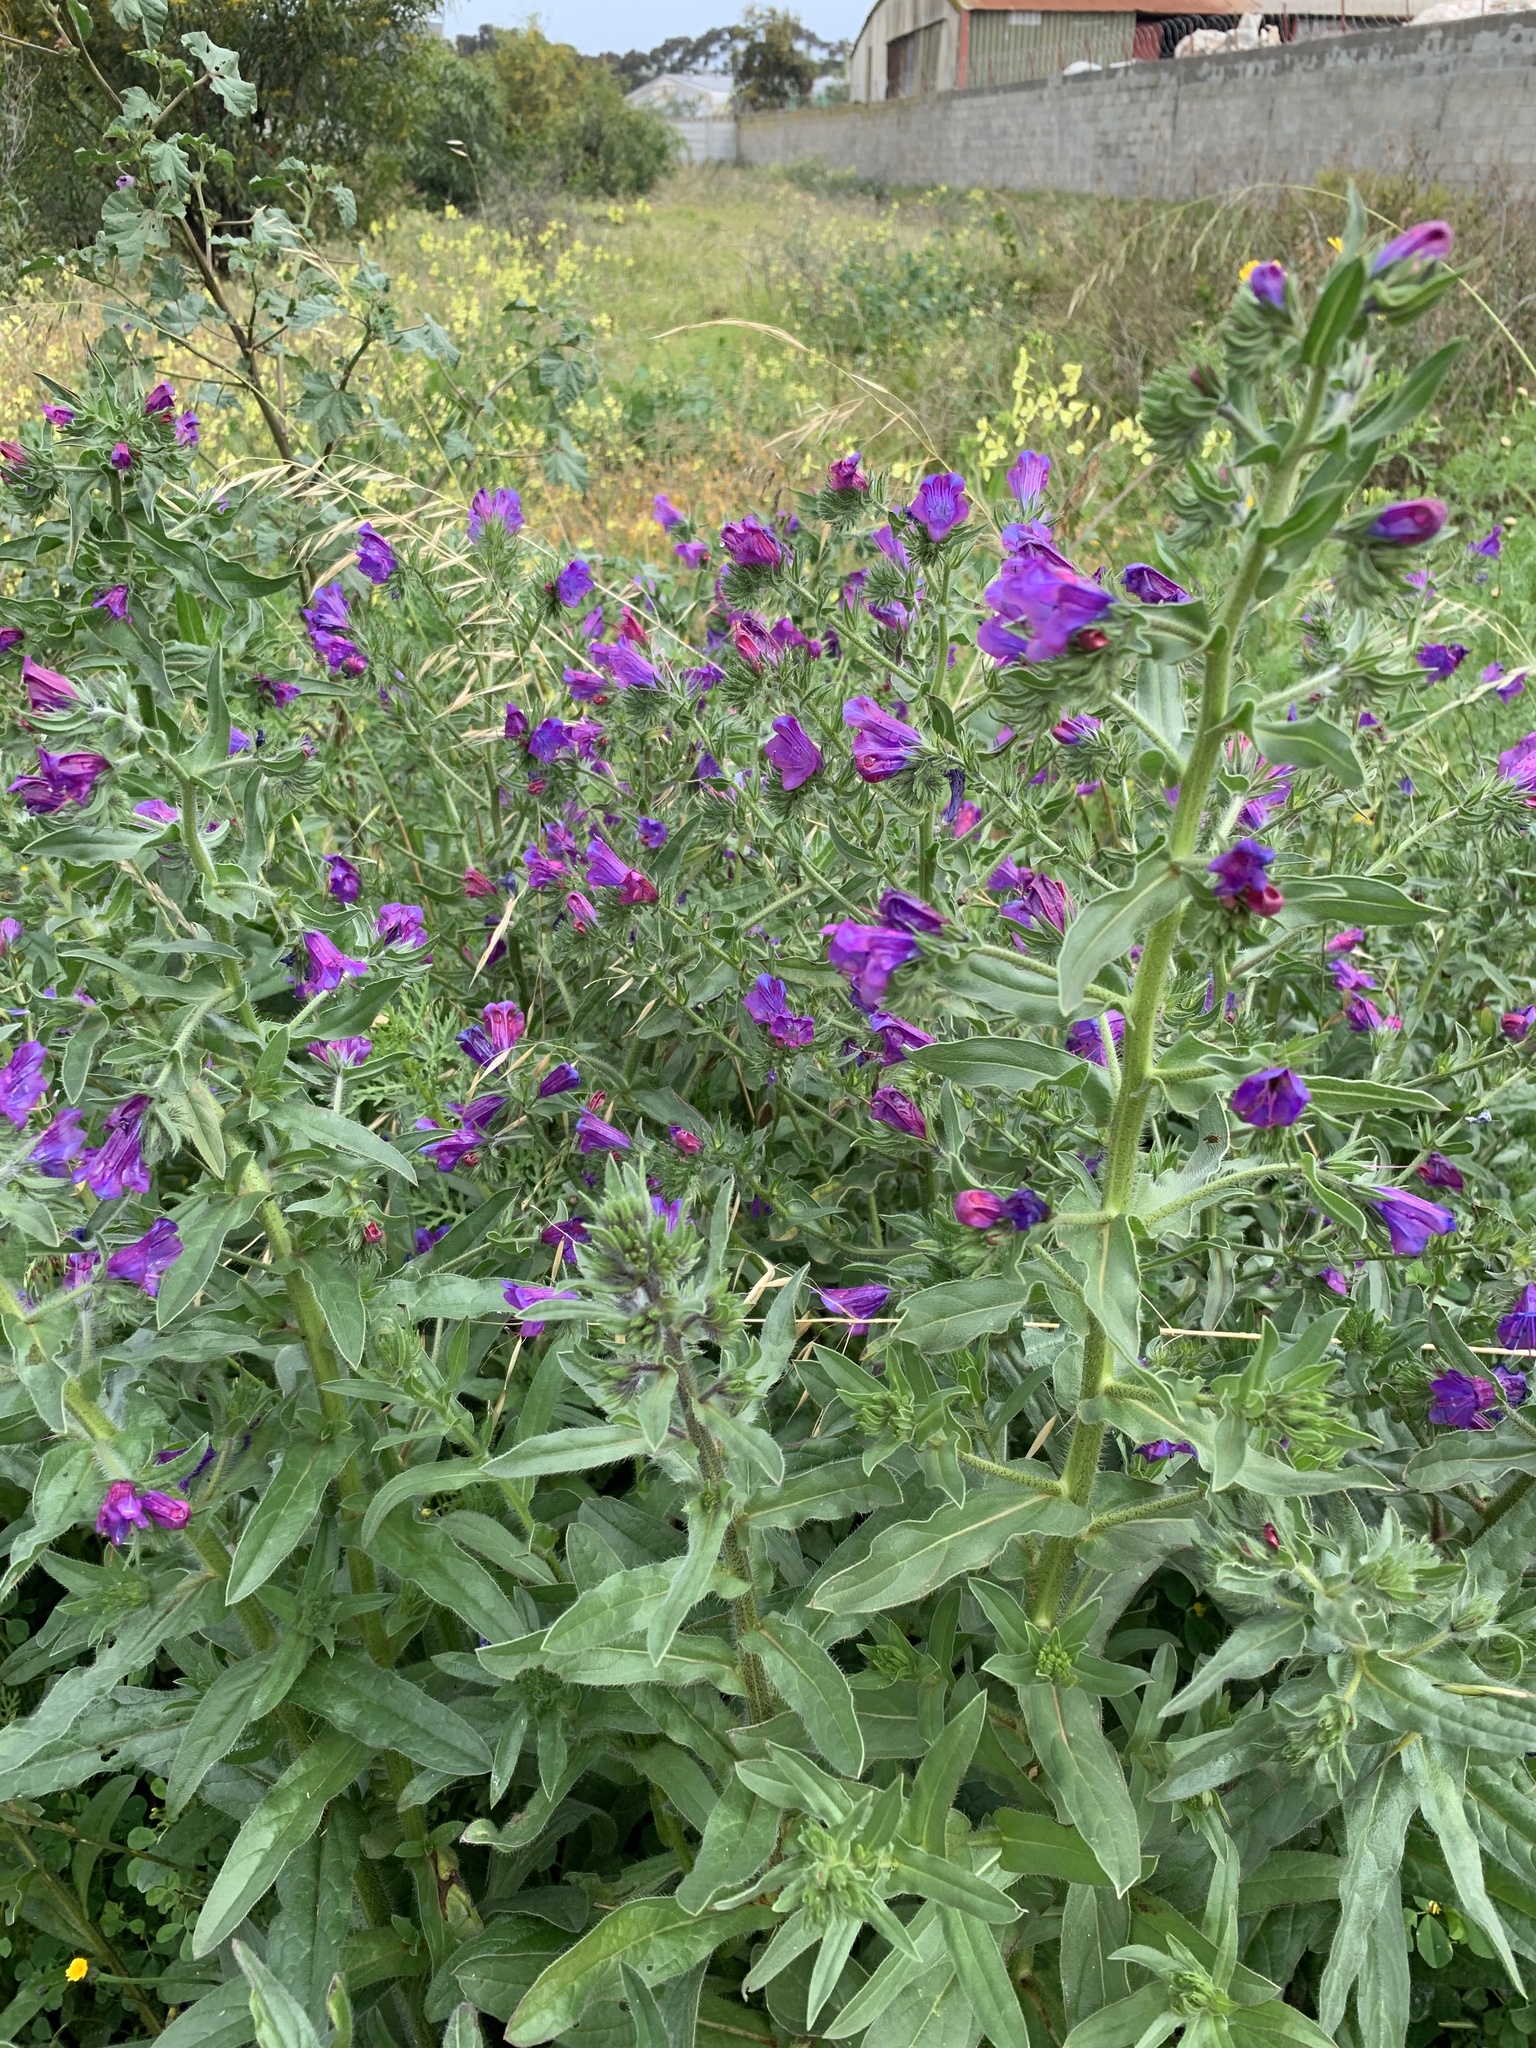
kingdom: Plantae
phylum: Tracheophyta
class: Magnoliopsida
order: Boraginales
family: Boraginaceae
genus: Echium
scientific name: Echium plantagineum
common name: Purple viper's-bugloss
